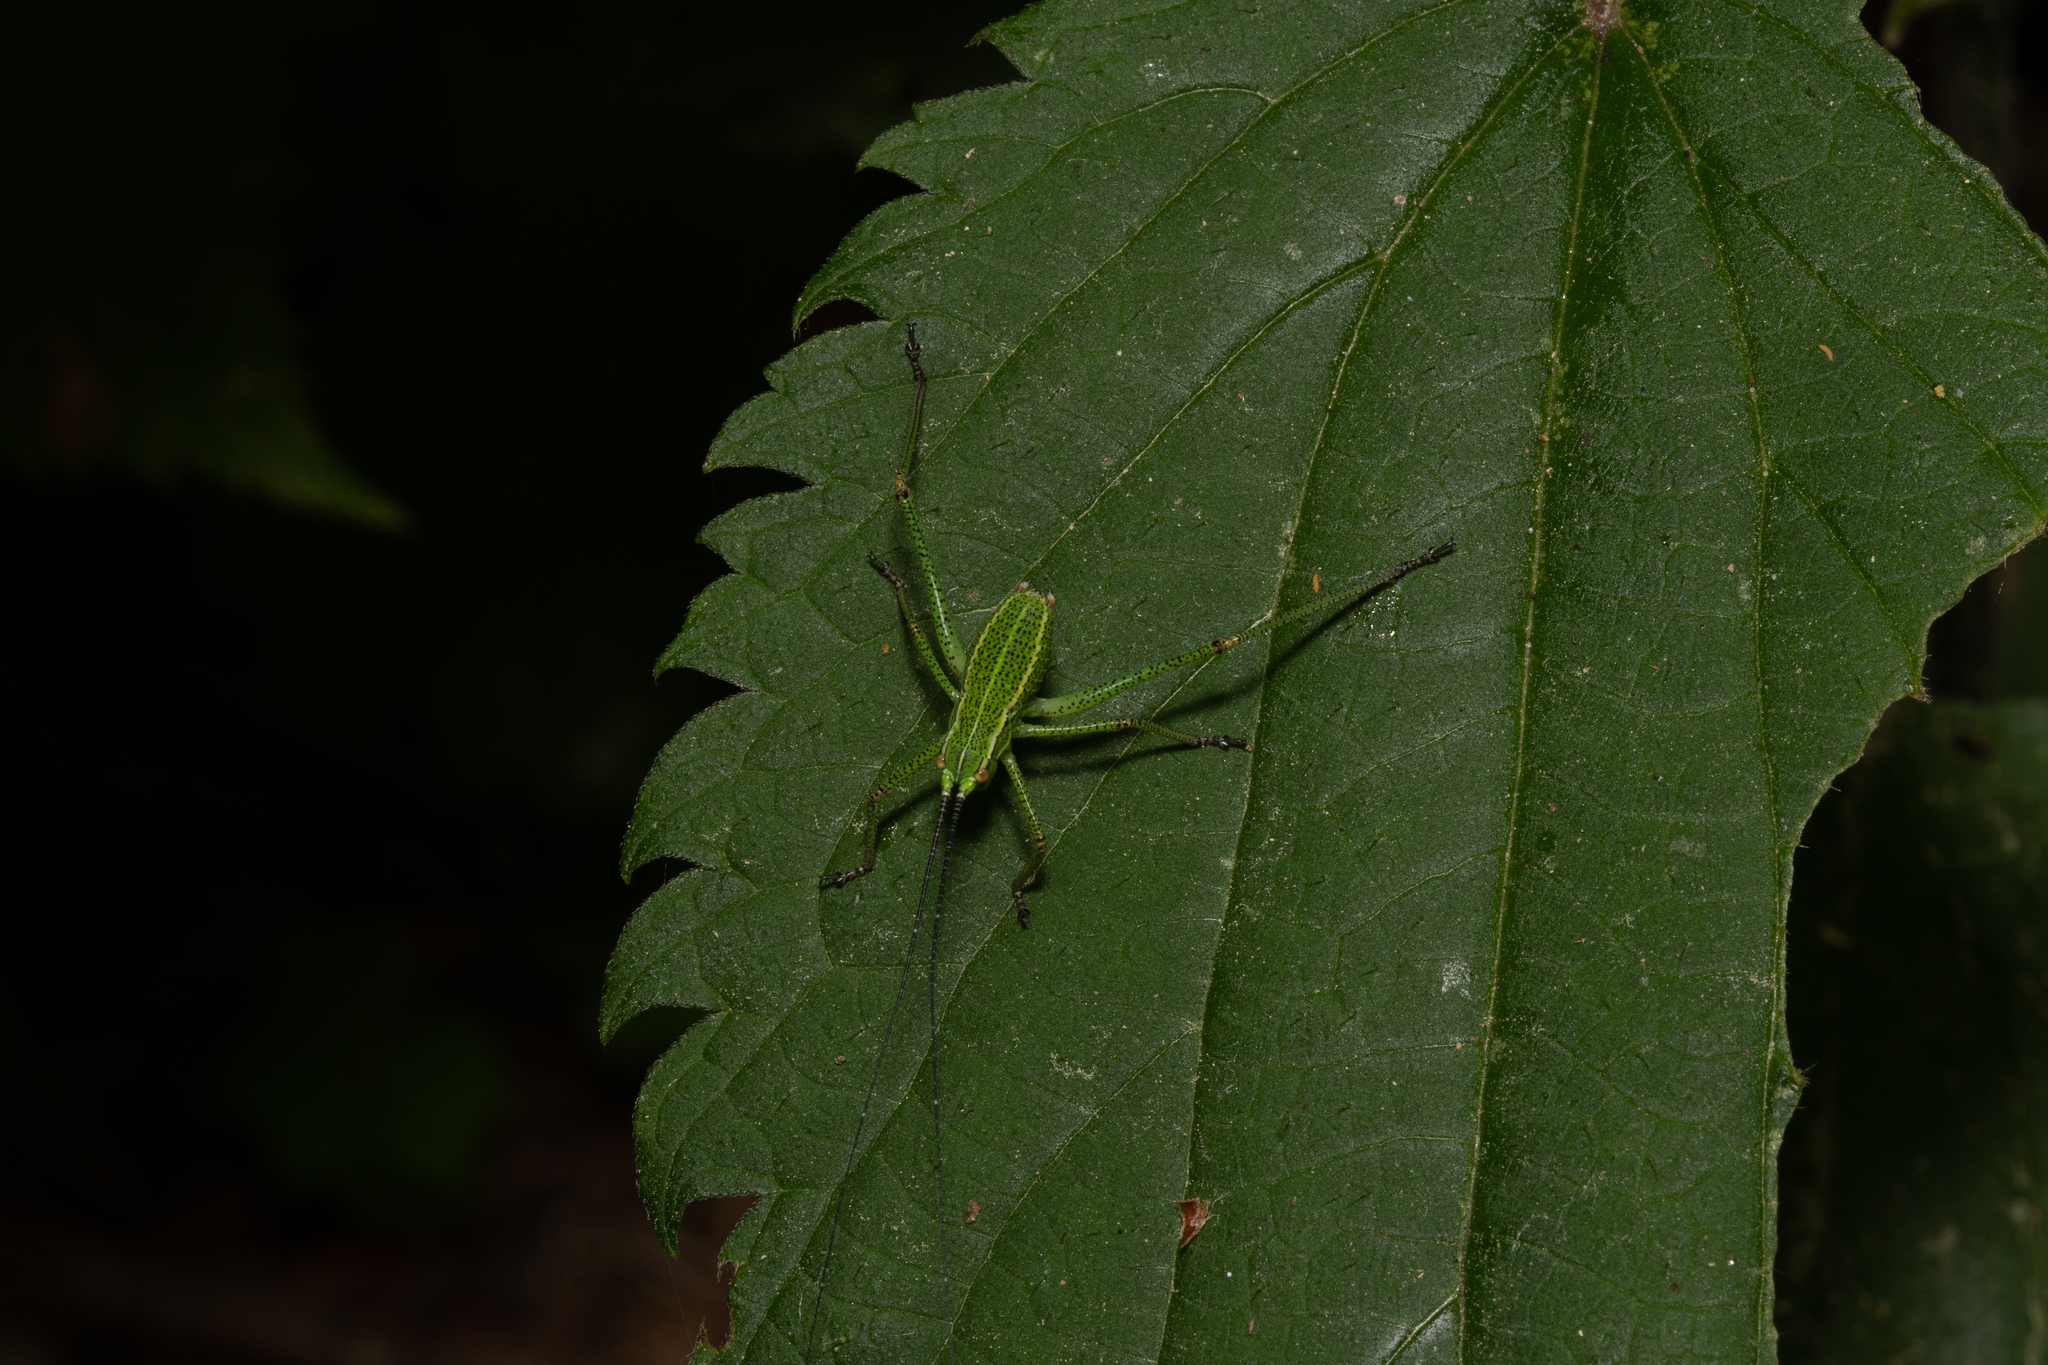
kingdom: Animalia
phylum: Arthropoda
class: Insecta
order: Orthoptera
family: Tettigoniidae
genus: Barbitistes
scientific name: Barbitistes constrictus
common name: Eastern saw-tailed bush cricket
